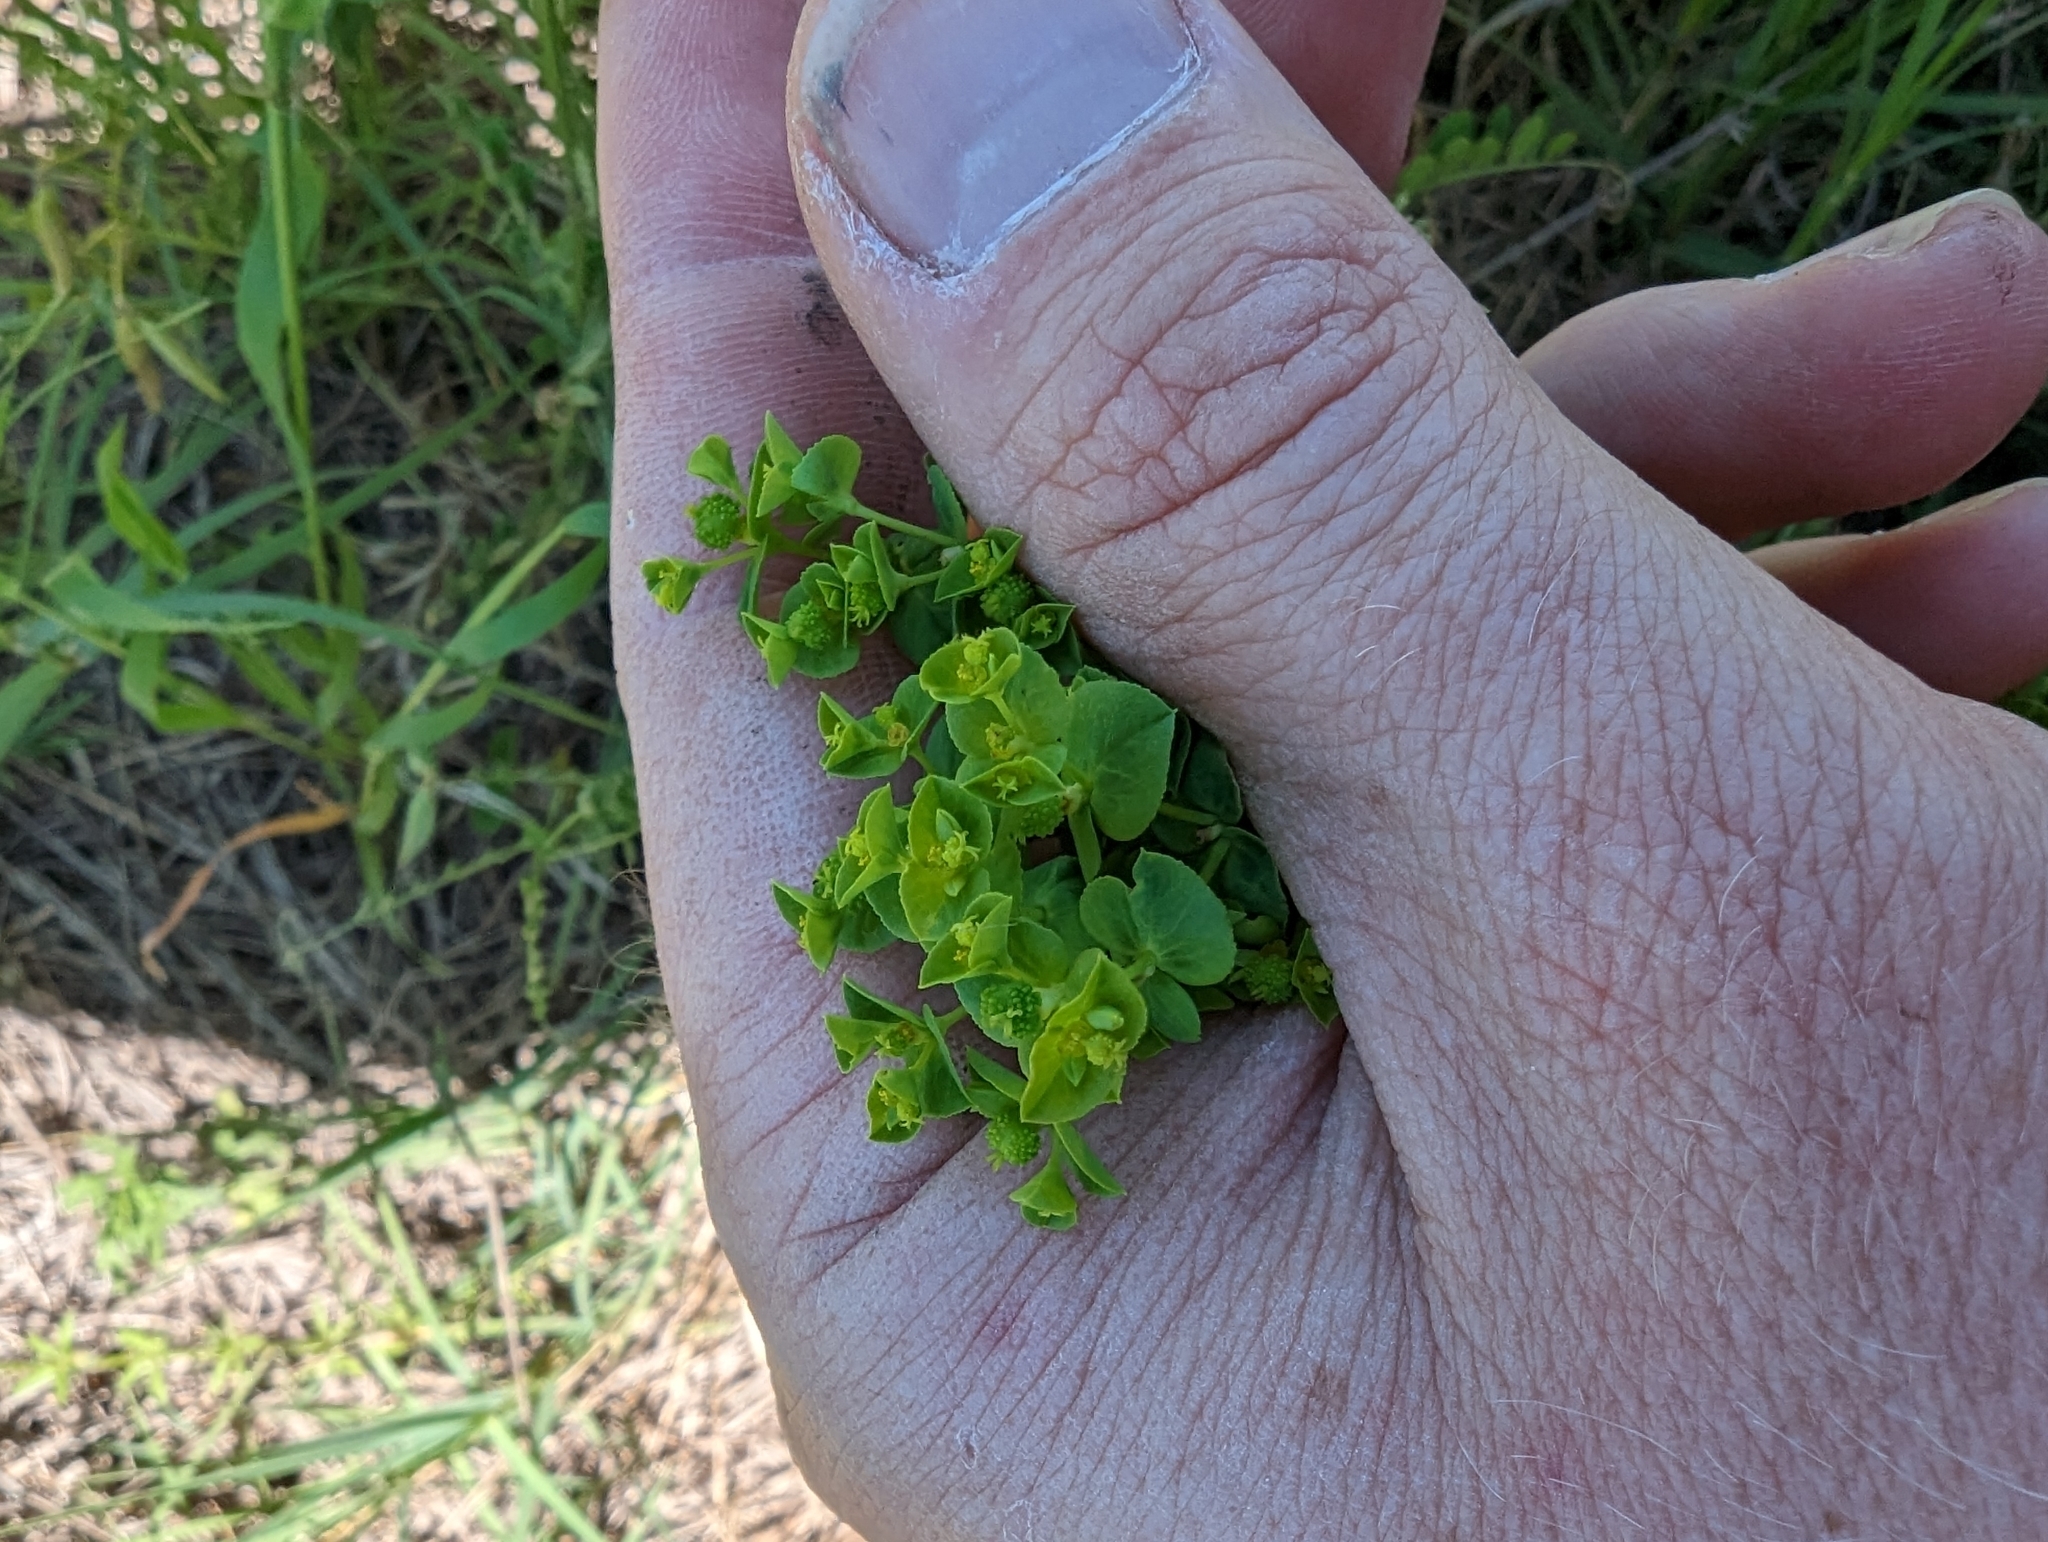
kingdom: Plantae
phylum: Tracheophyta
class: Magnoliopsida
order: Malpighiales
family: Euphorbiaceae
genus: Euphorbia
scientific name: Euphorbia spathulata
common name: Blunt spurge
